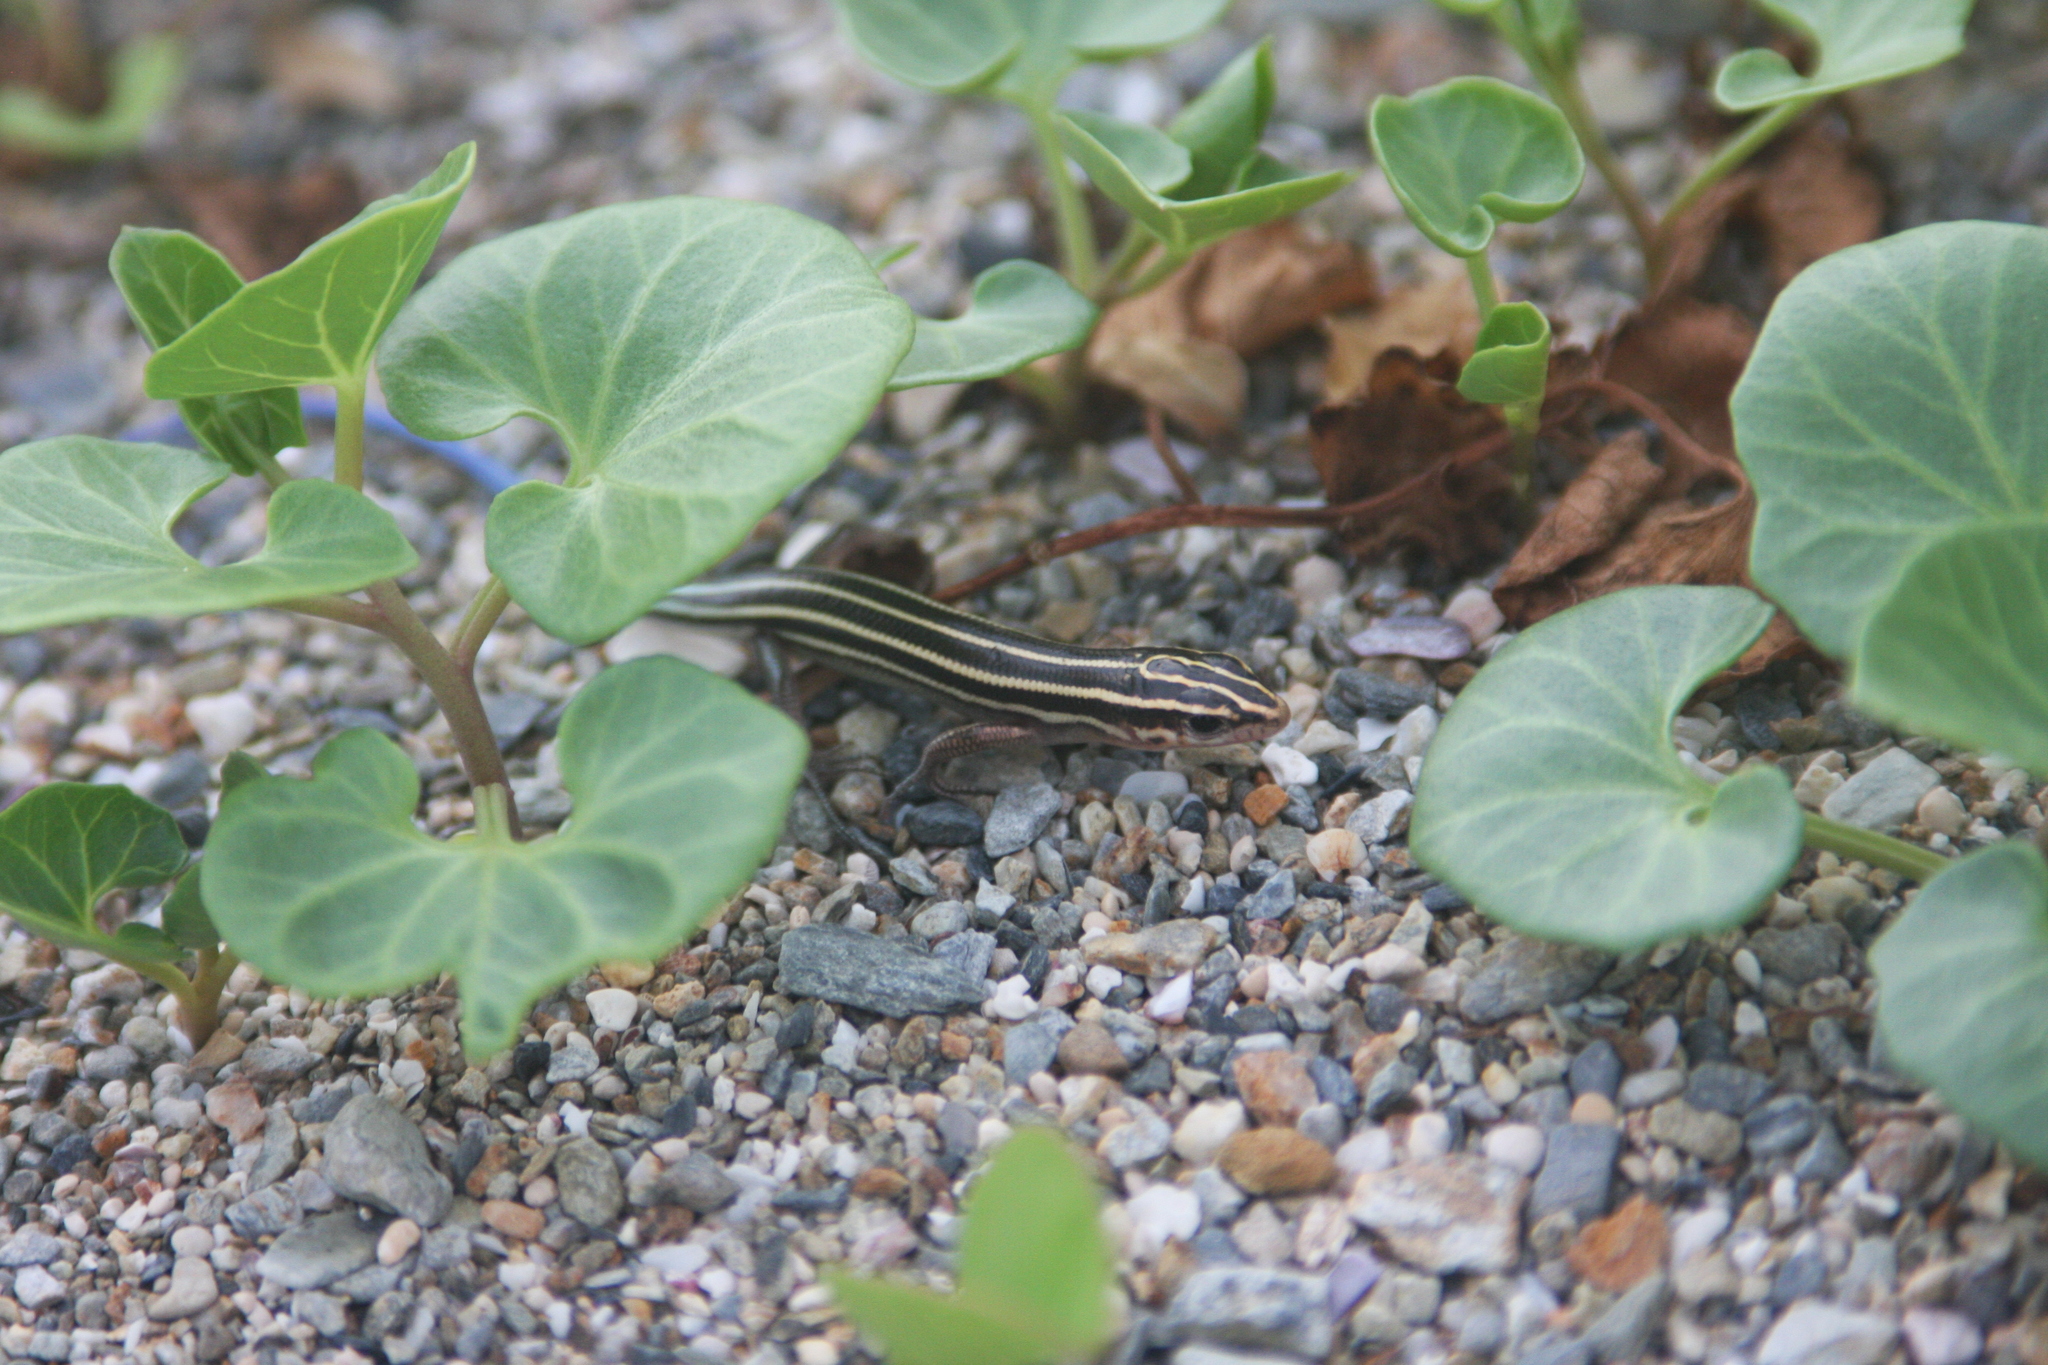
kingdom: Animalia
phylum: Chordata
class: Squamata
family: Scincidae
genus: Plestiodon
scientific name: Plestiodon marginatus
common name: Ousima skink
